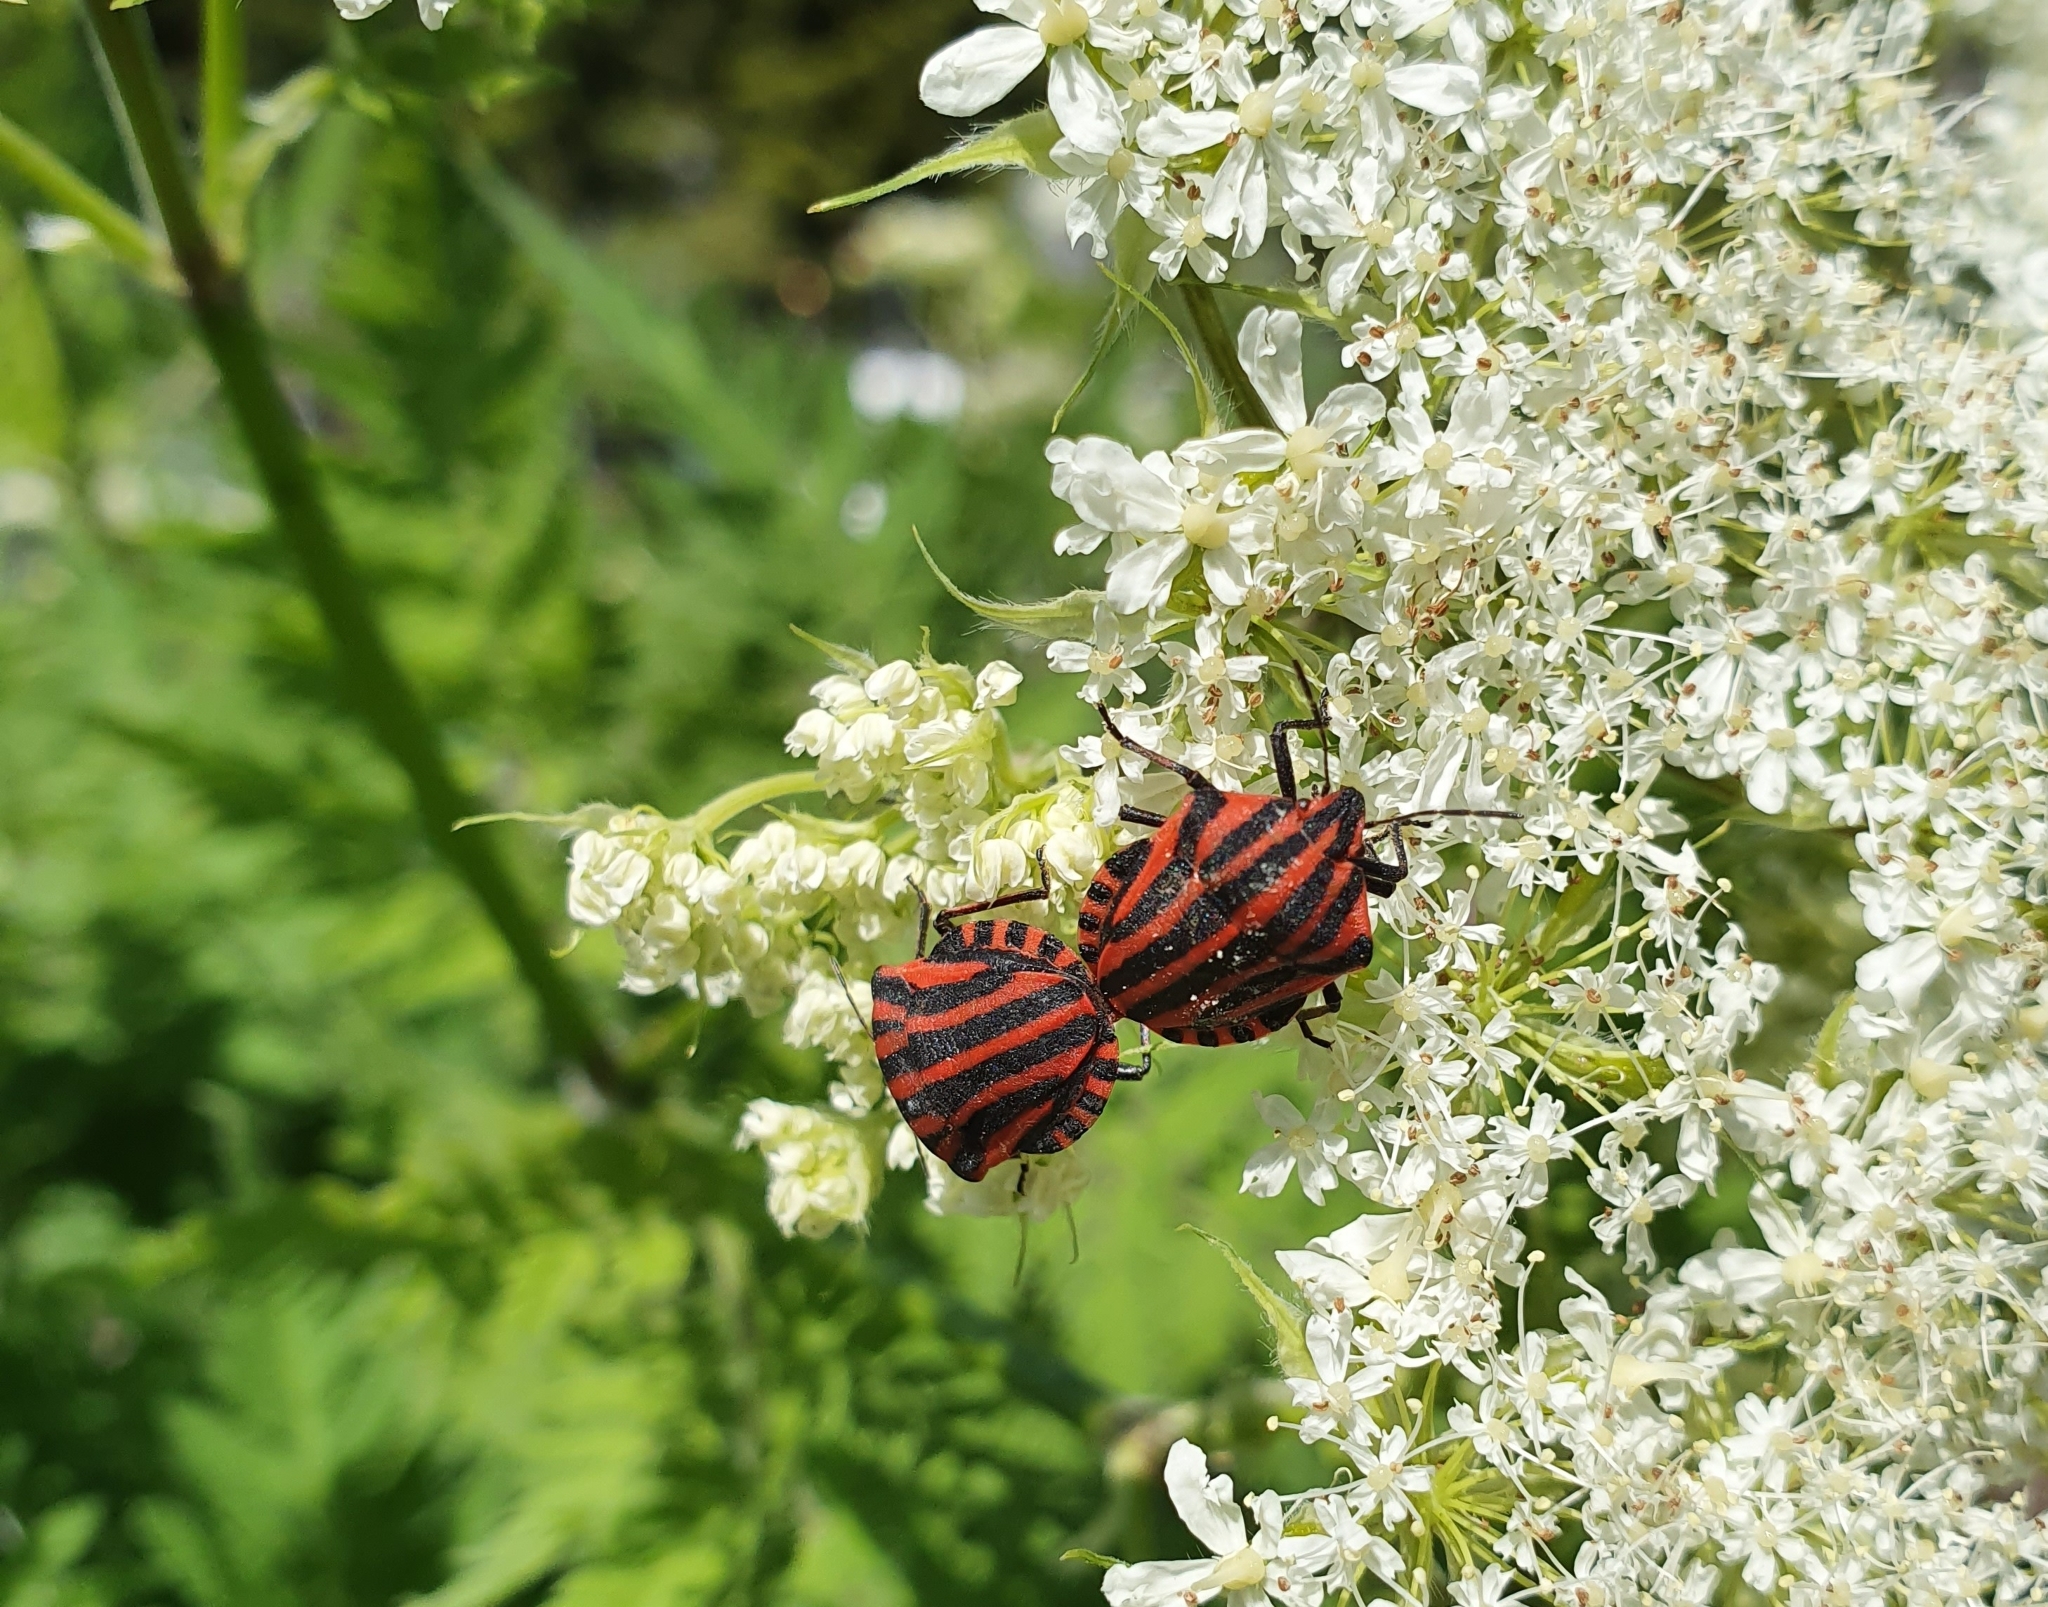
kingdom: Animalia
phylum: Arthropoda
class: Insecta
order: Hemiptera
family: Pentatomidae
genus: Graphosoma
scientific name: Graphosoma italicum
